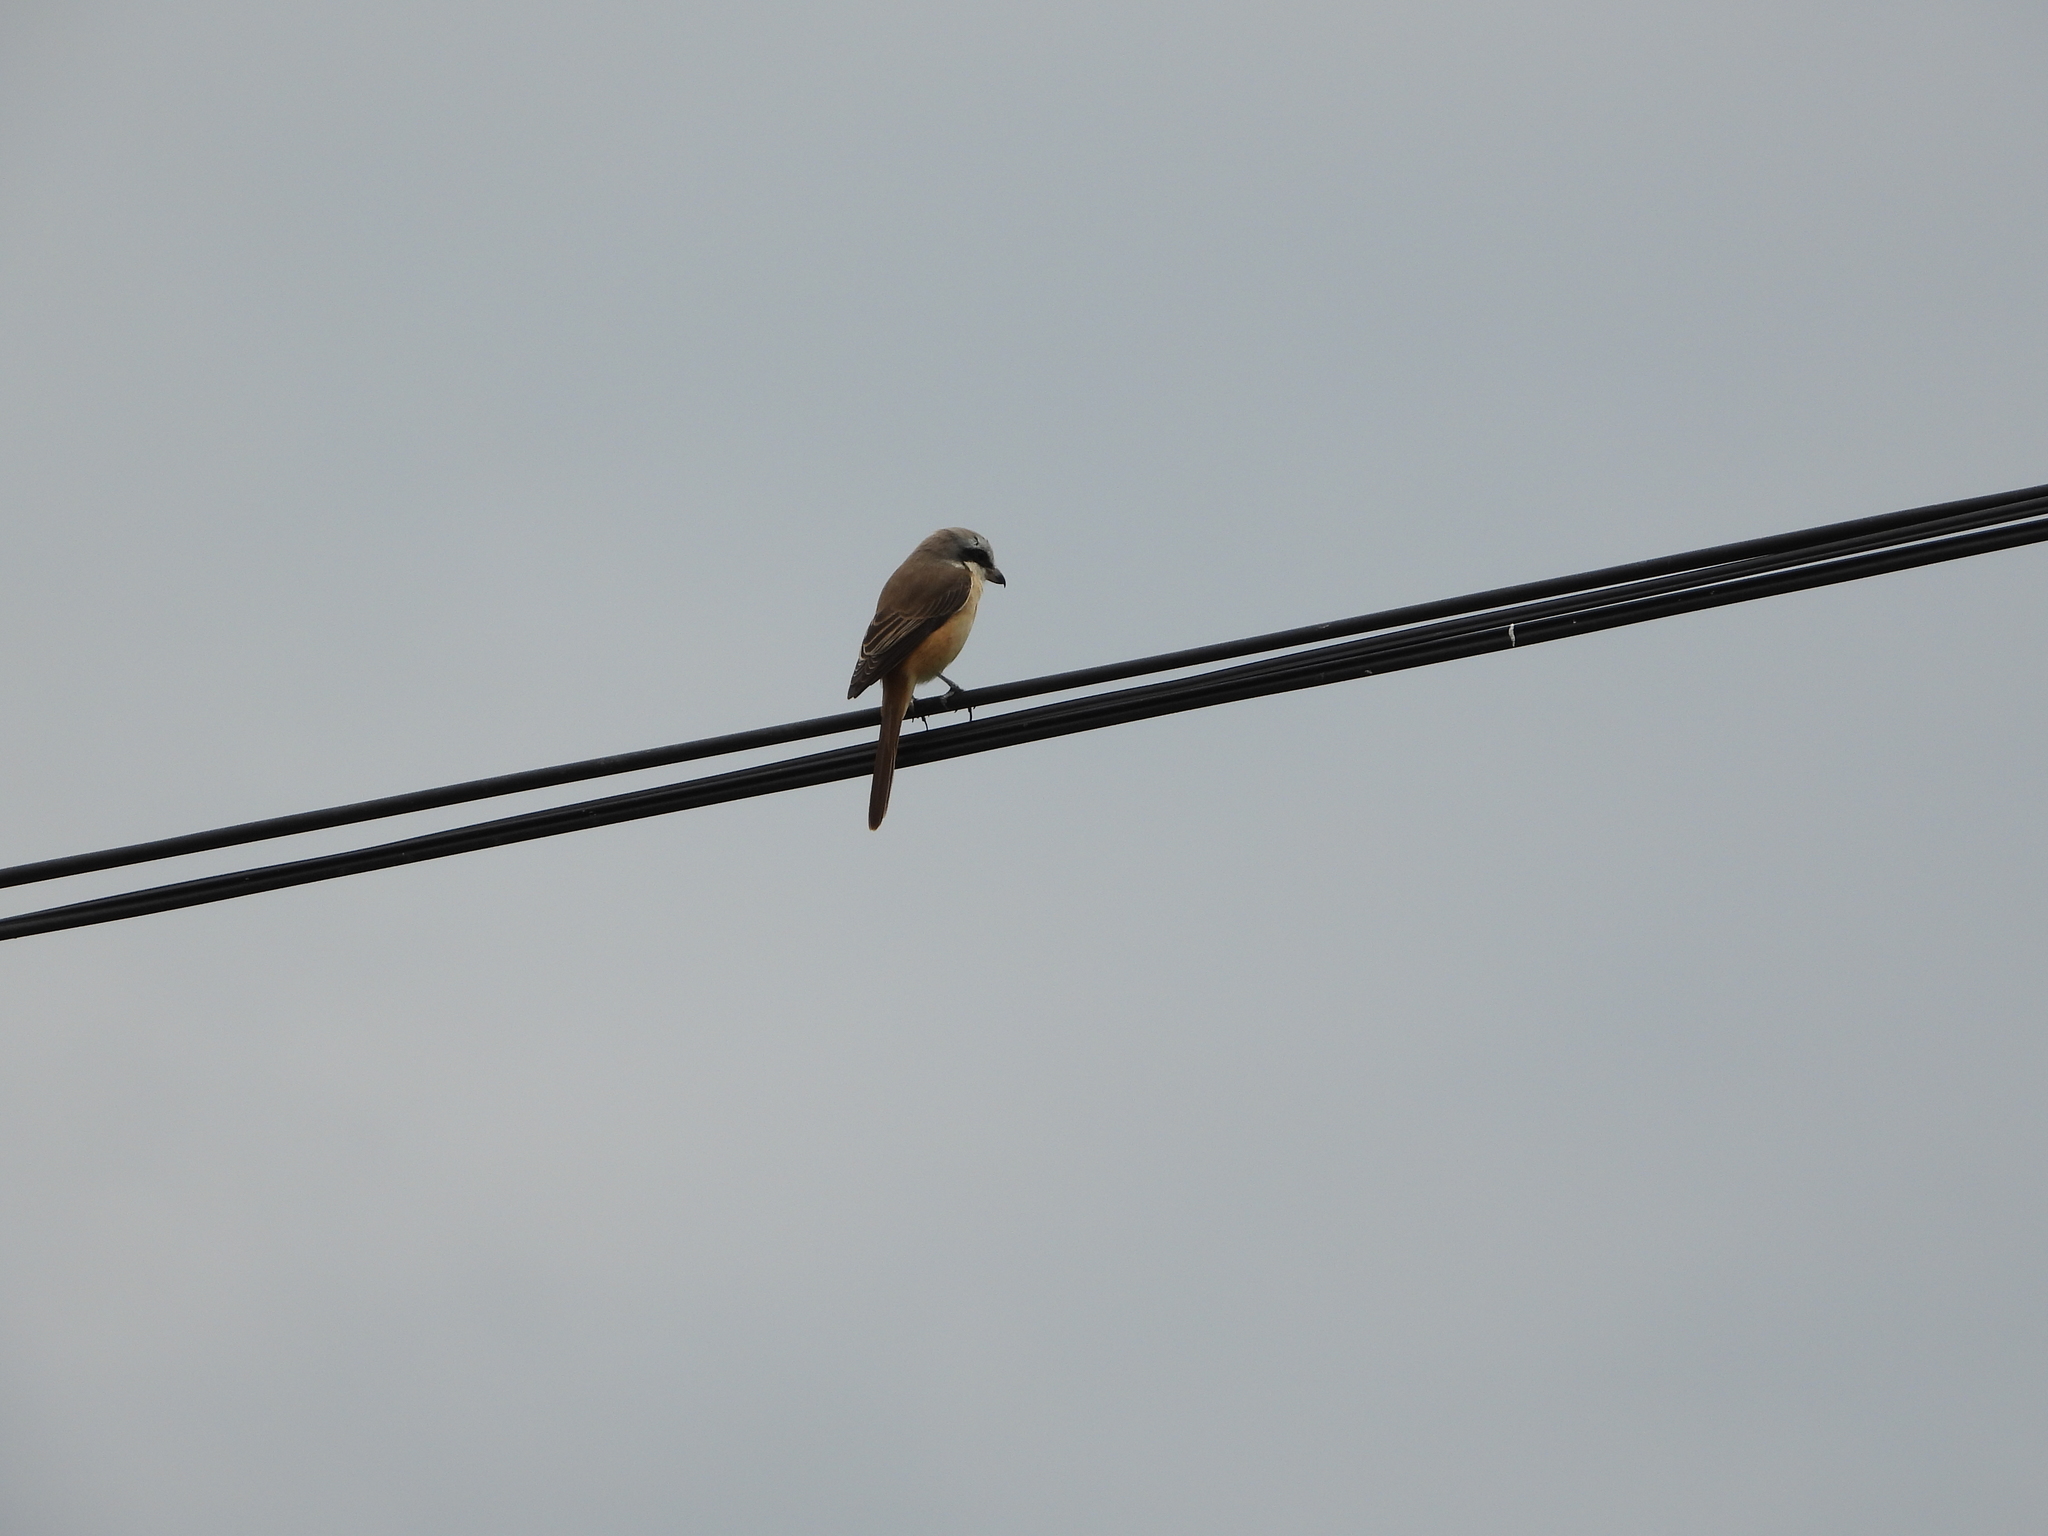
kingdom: Animalia
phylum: Chordata
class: Aves
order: Passeriformes
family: Laniidae
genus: Lanius
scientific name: Lanius cristatus
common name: Brown shrike
